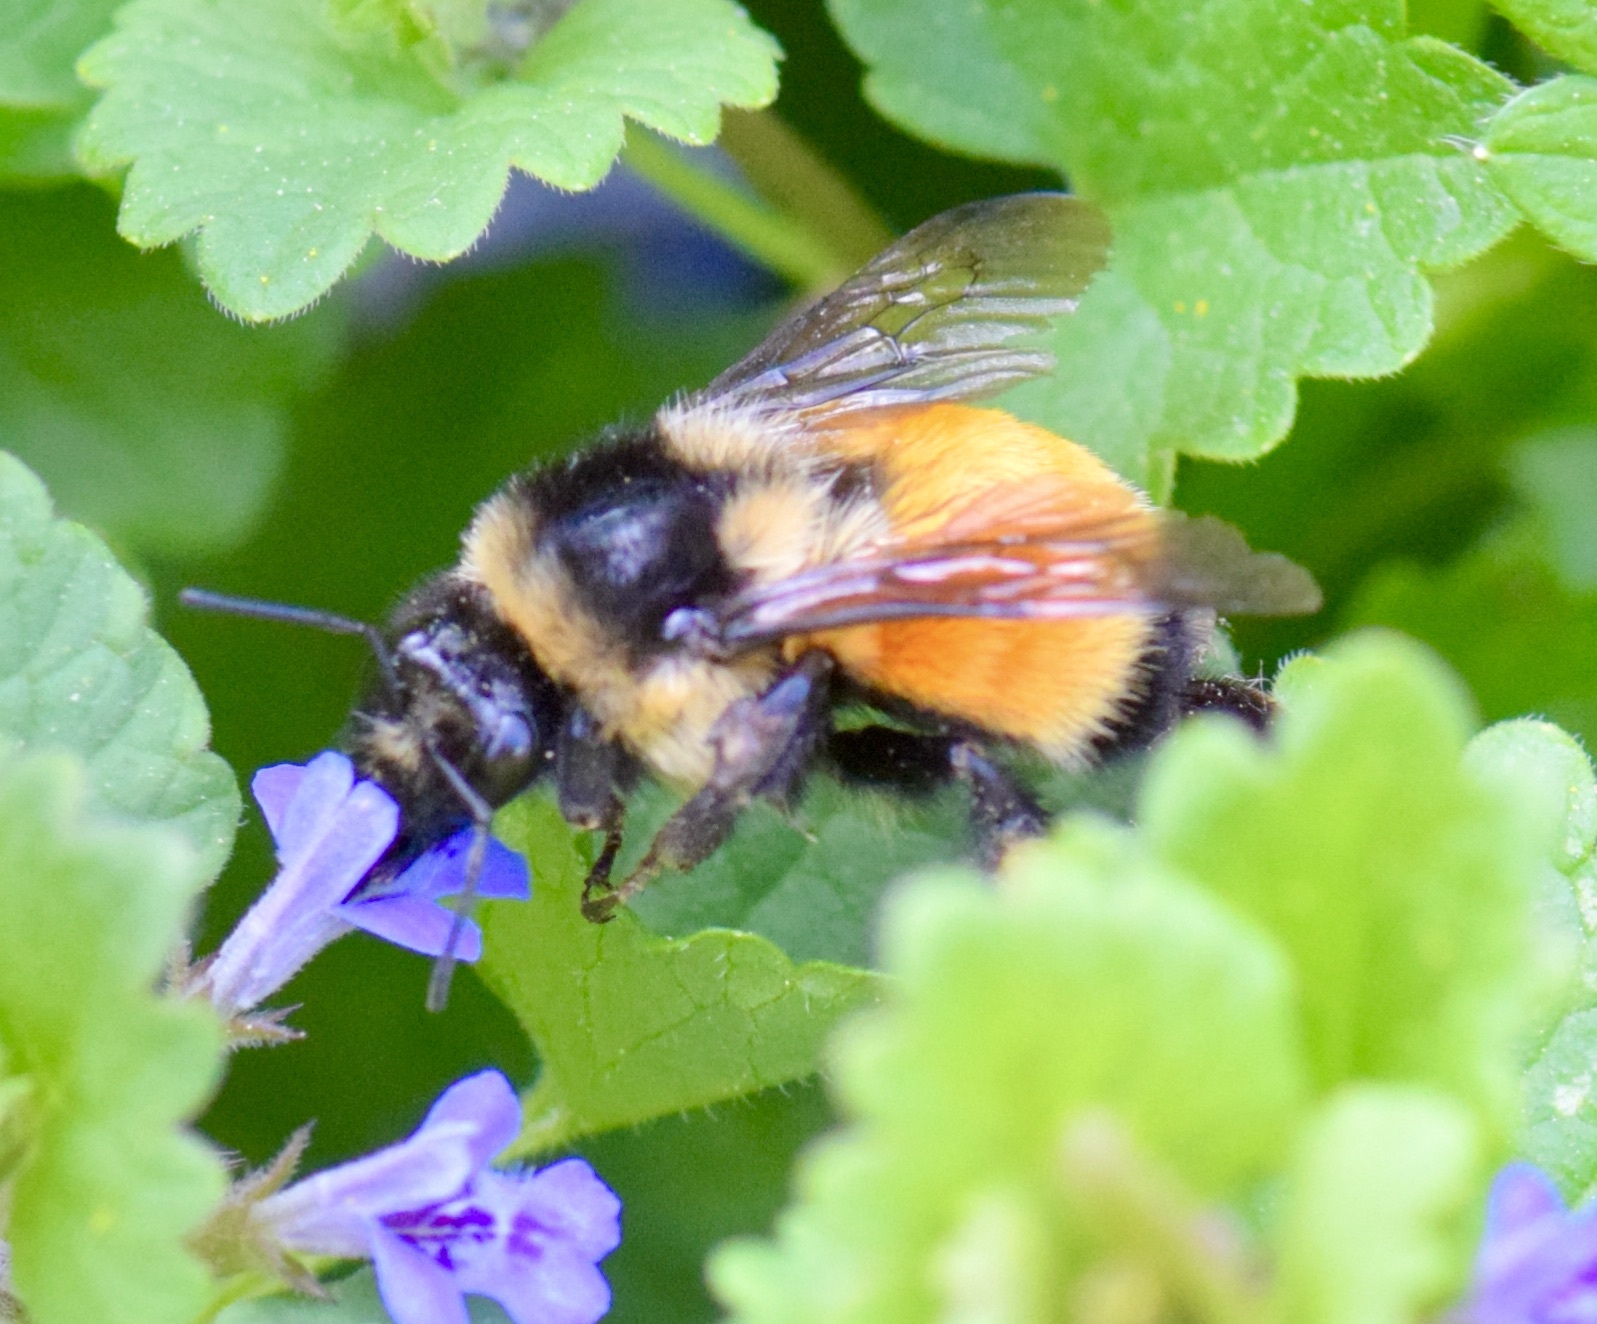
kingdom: Animalia
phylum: Arthropoda
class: Insecta
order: Hymenoptera
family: Apidae
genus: Bombus
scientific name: Bombus ternarius
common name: Tri-colored bumble bee
